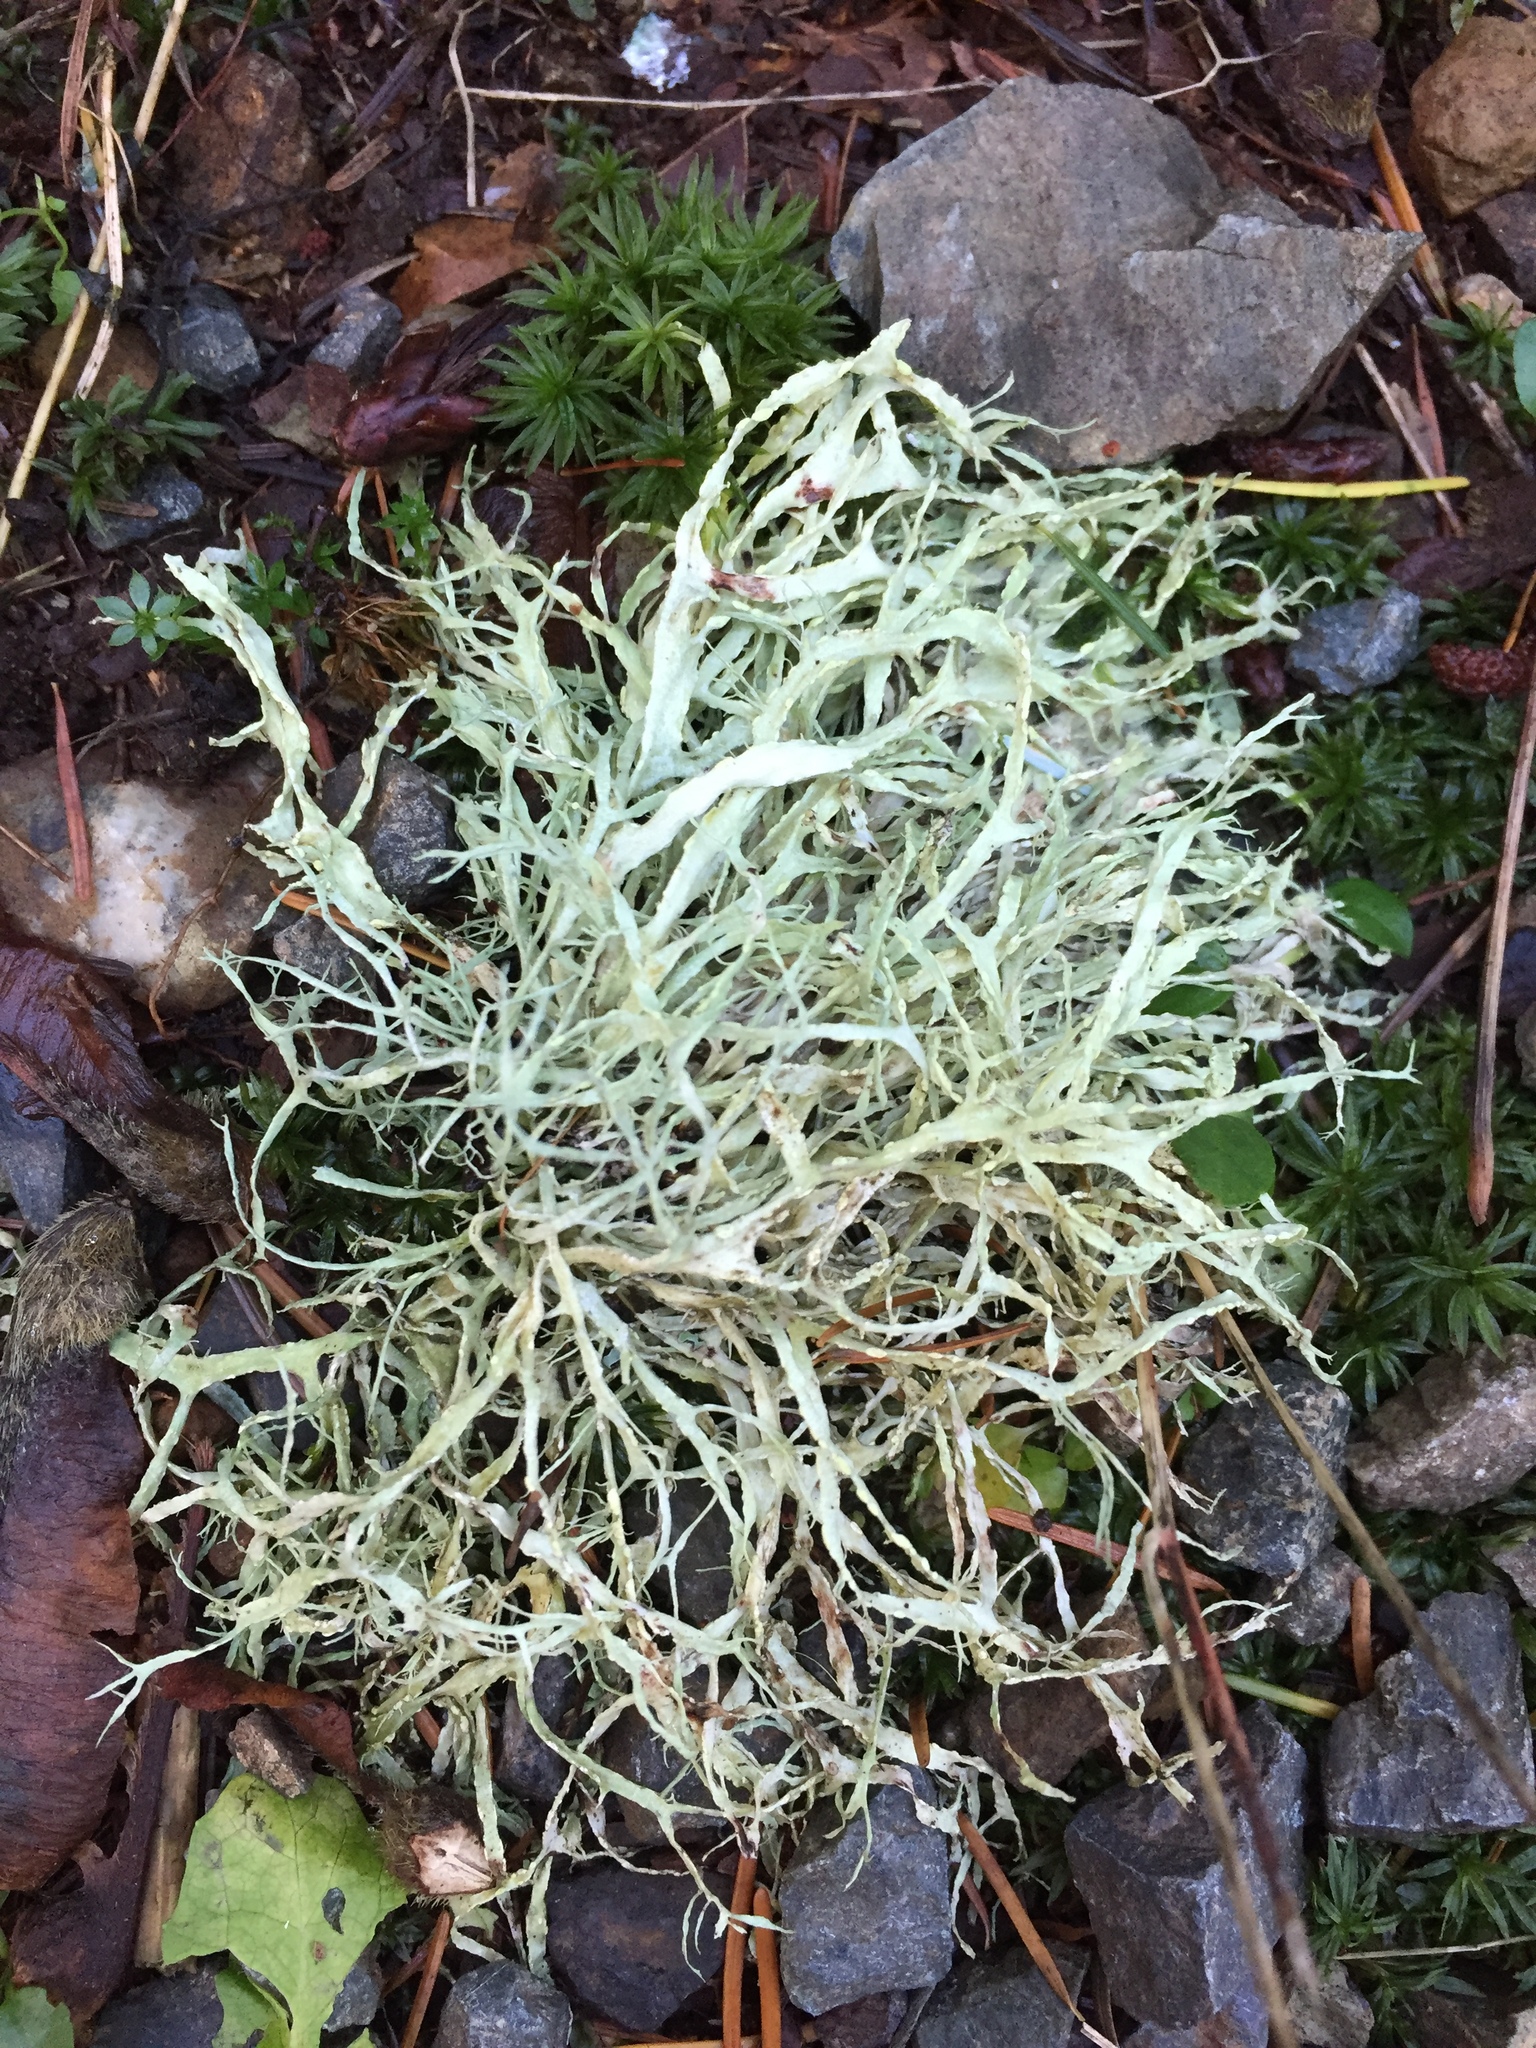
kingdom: Fungi
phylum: Ascomycota
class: Lecanoromycetes
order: Lecanorales
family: Ramalinaceae
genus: Ramalina
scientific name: Ramalina farinacea
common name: Farinose cartilage lichen
